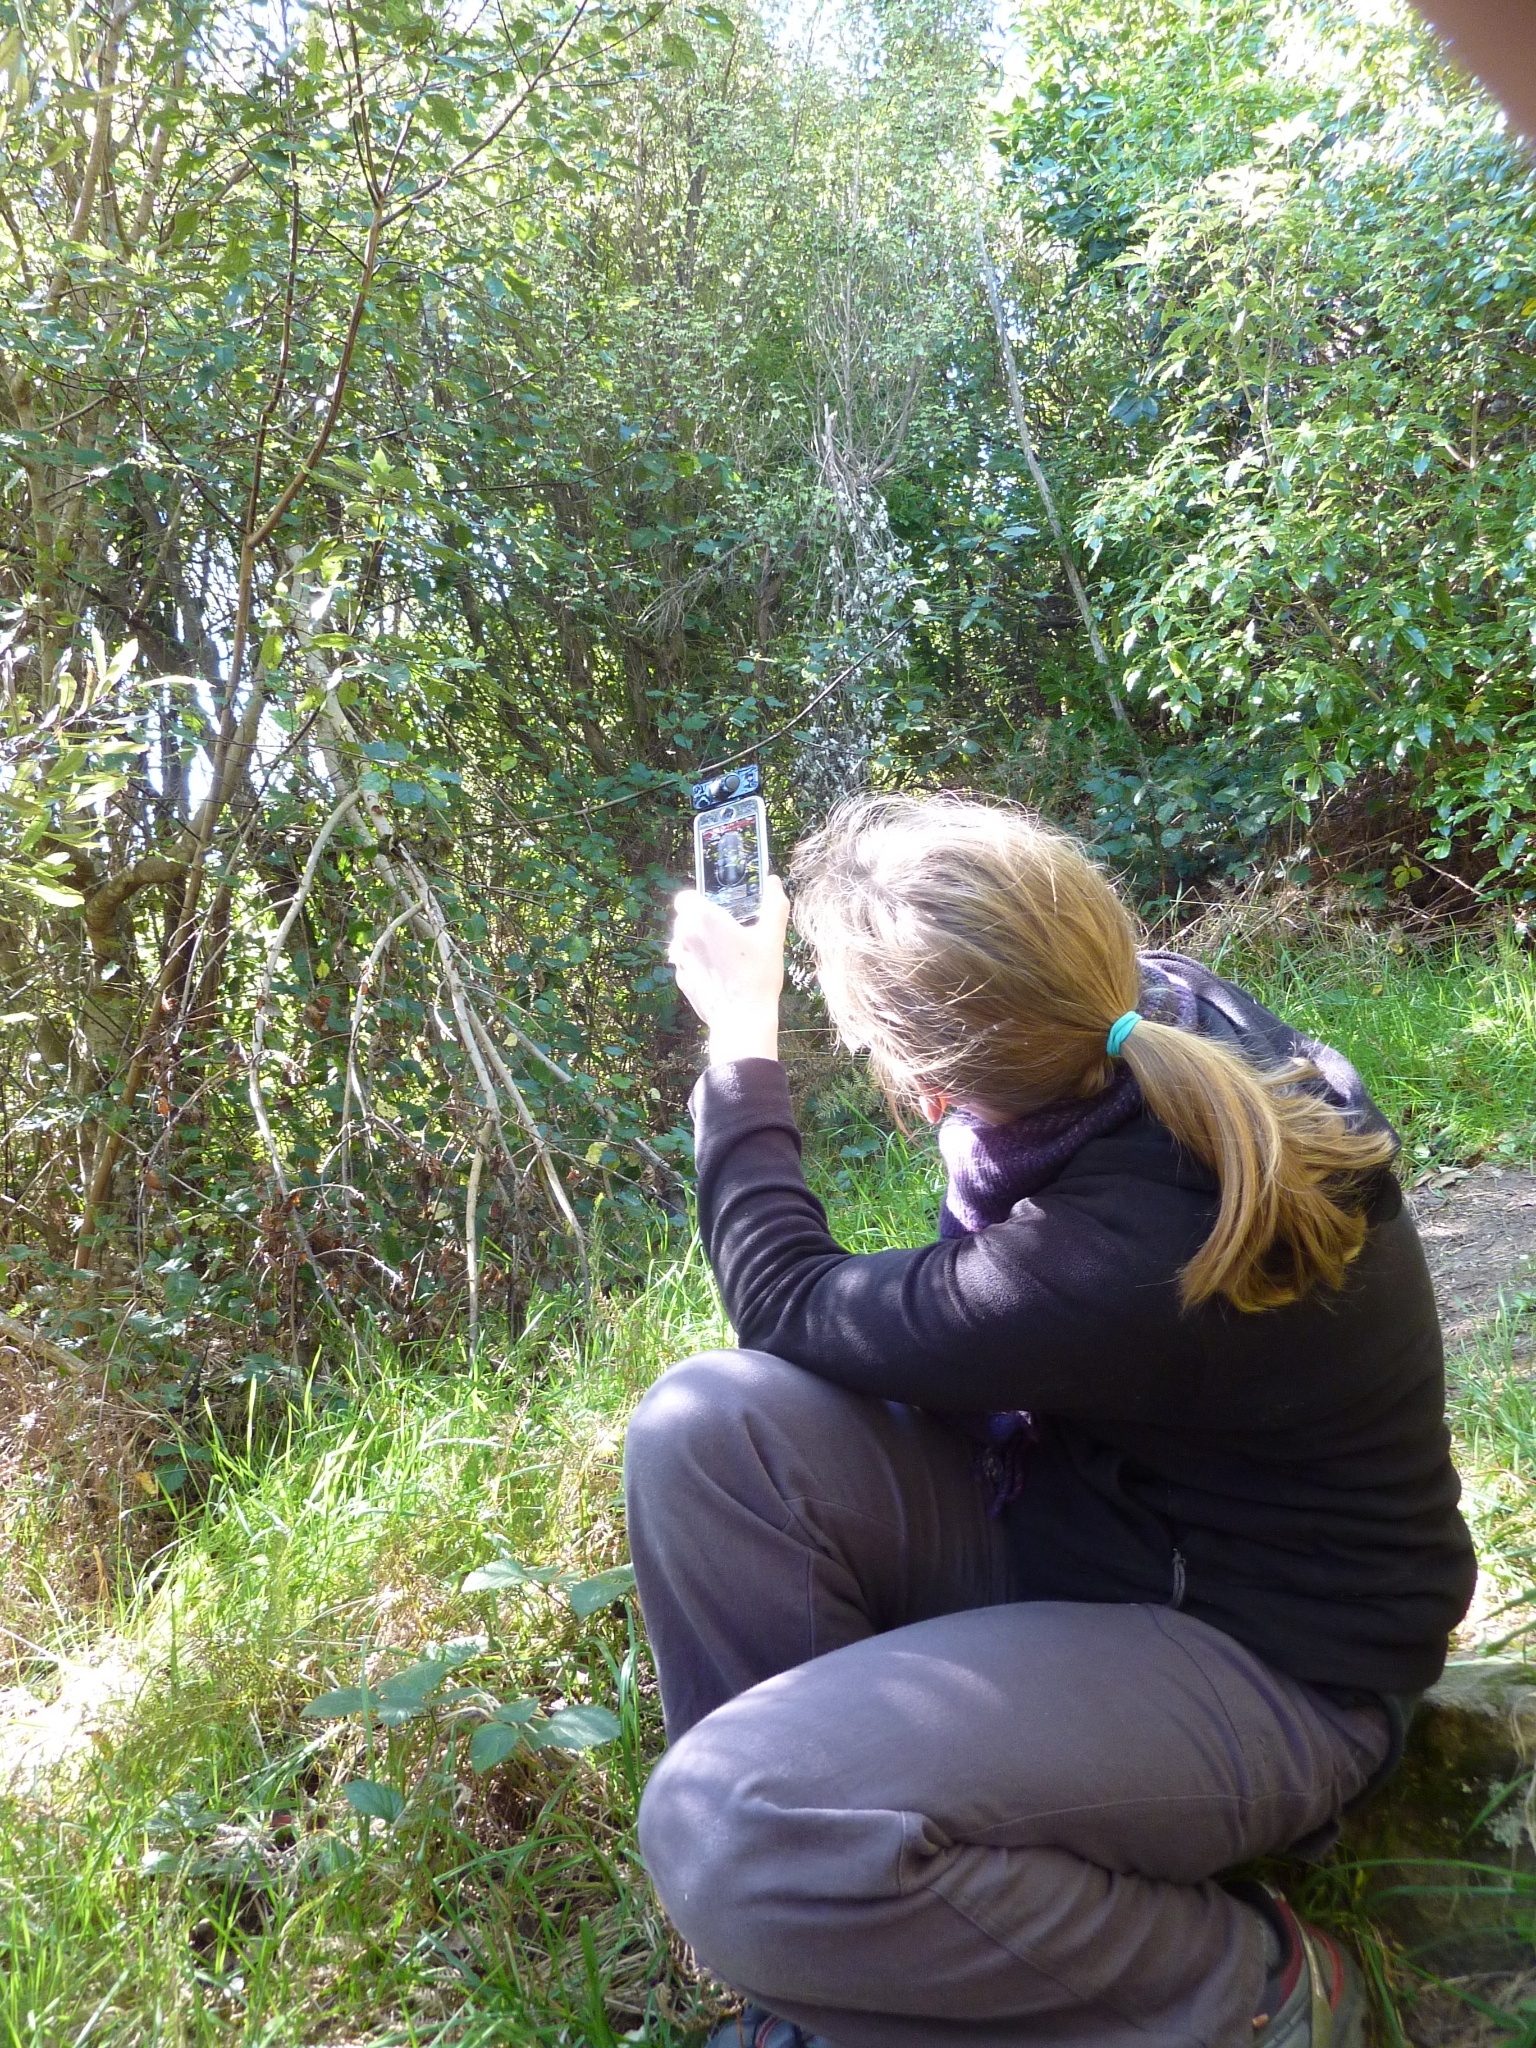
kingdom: Animalia
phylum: Chordata
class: Aves
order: Passeriformes
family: Meliphagidae
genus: Anthornis
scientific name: Anthornis melanura
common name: New zealand bellbird
